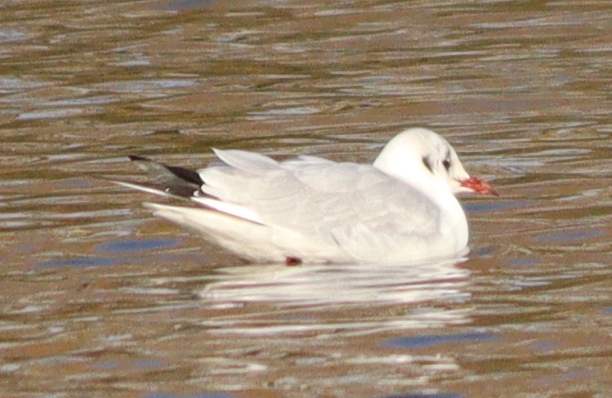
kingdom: Animalia
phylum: Chordata
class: Aves
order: Charadriiformes
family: Laridae
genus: Chroicocephalus
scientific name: Chroicocephalus ridibundus
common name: Black-headed gull
